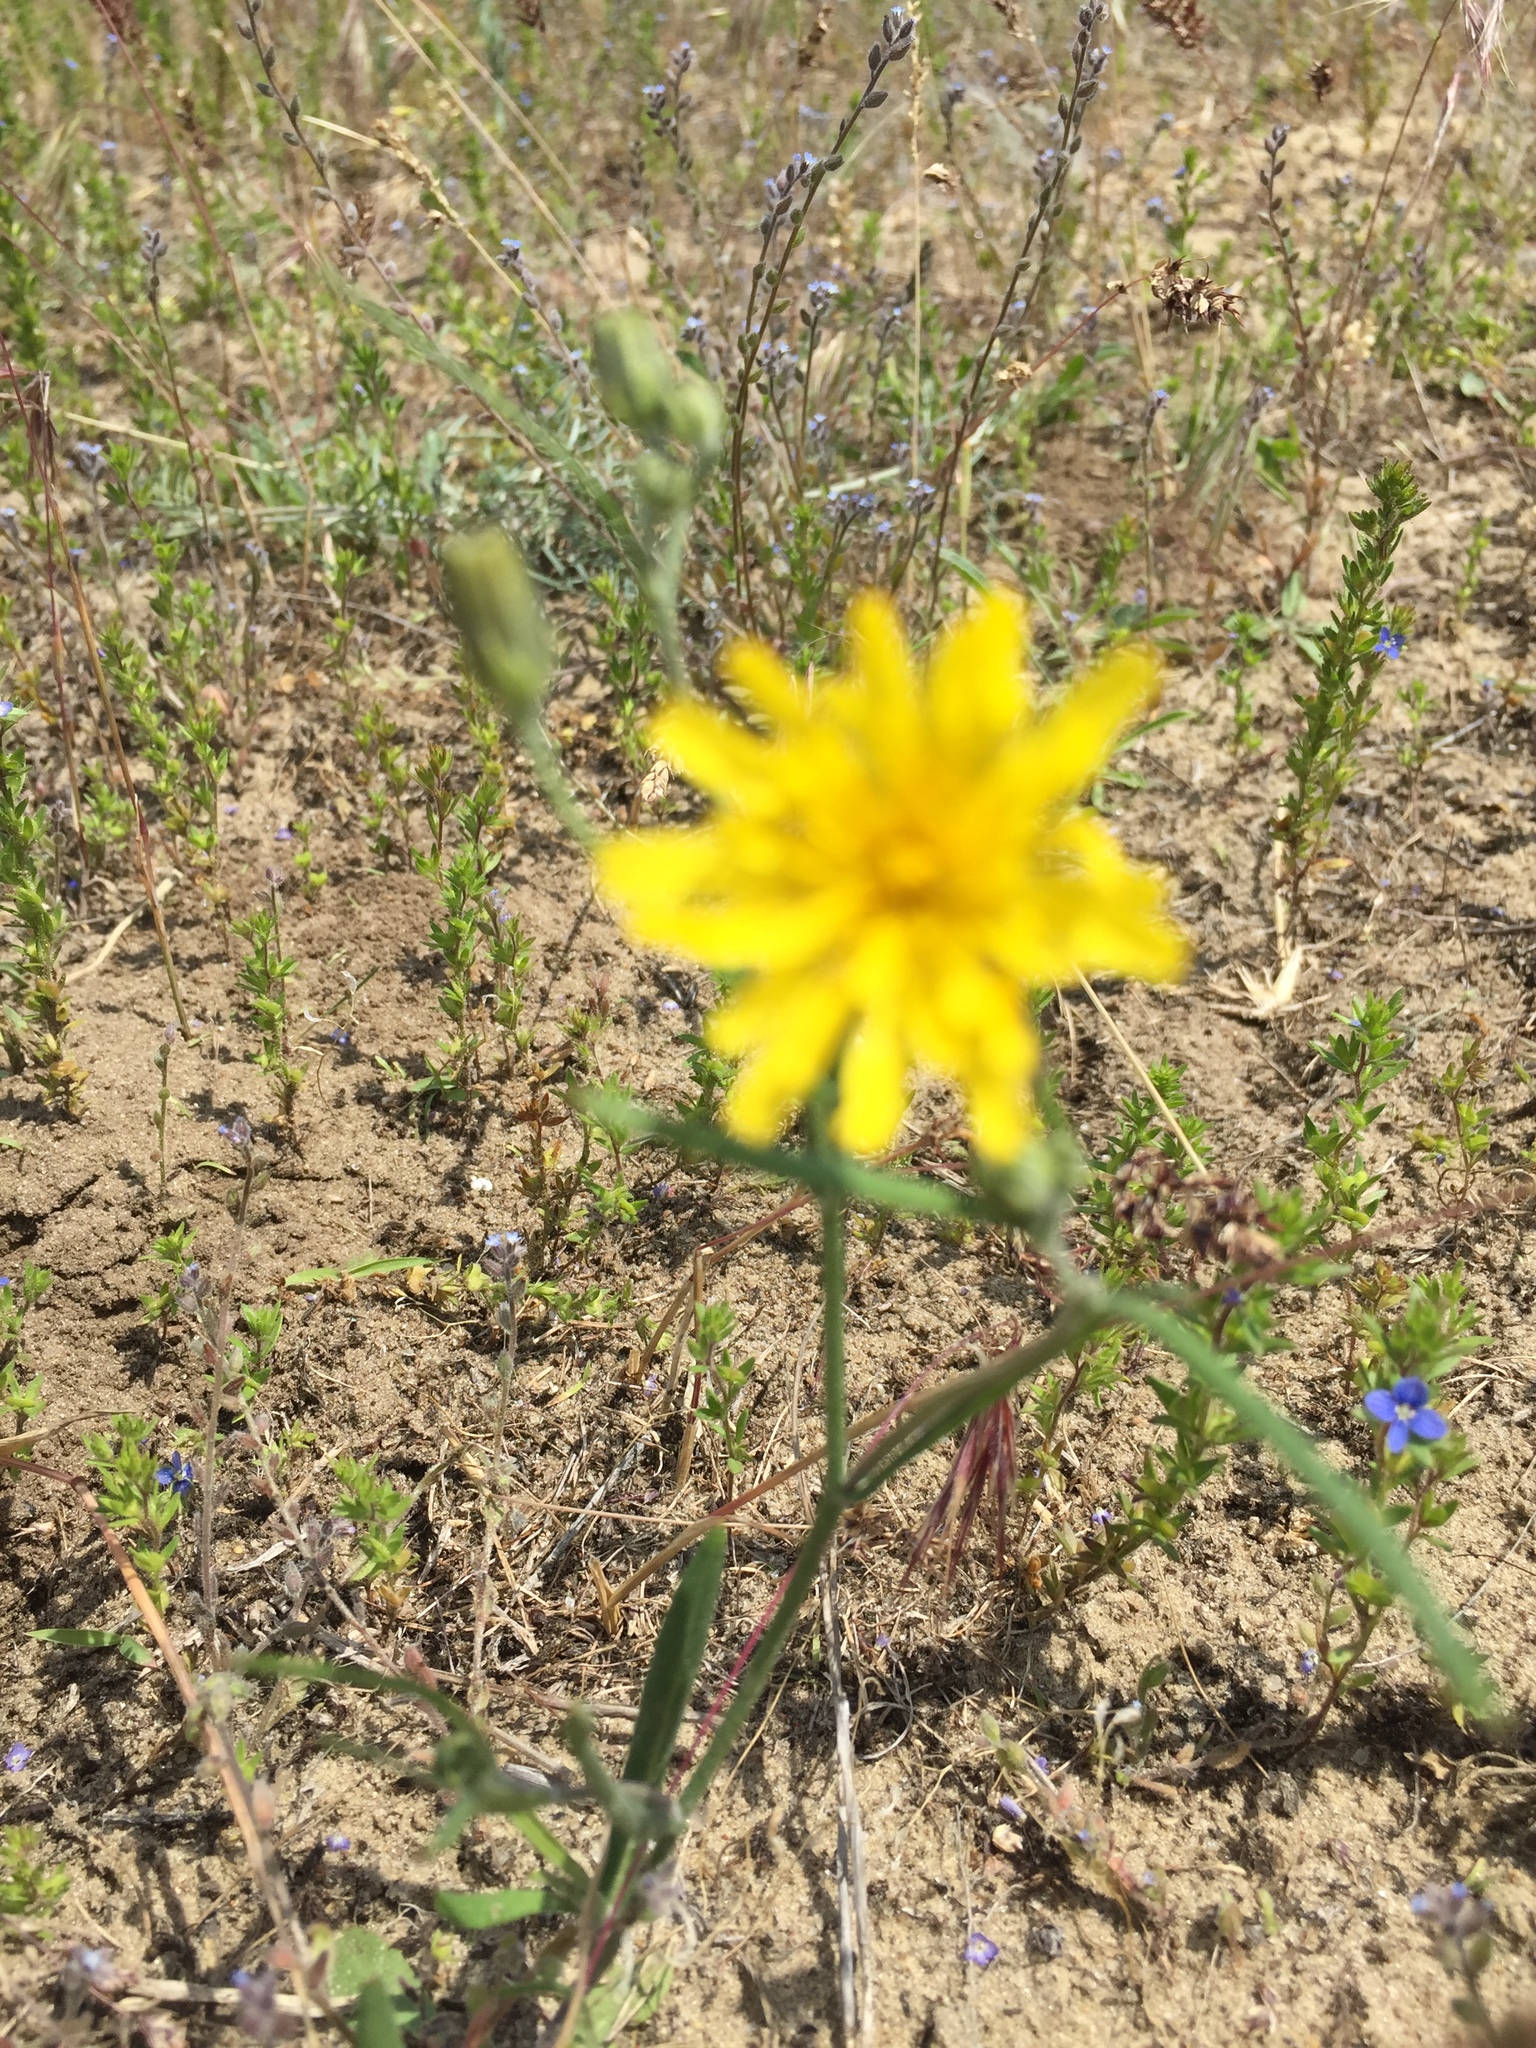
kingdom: Plantae
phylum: Tracheophyta
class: Magnoliopsida
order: Asterales
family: Asteraceae
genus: Crepis
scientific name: Crepis tectorum
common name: Narrow-leaved hawk's-beard
